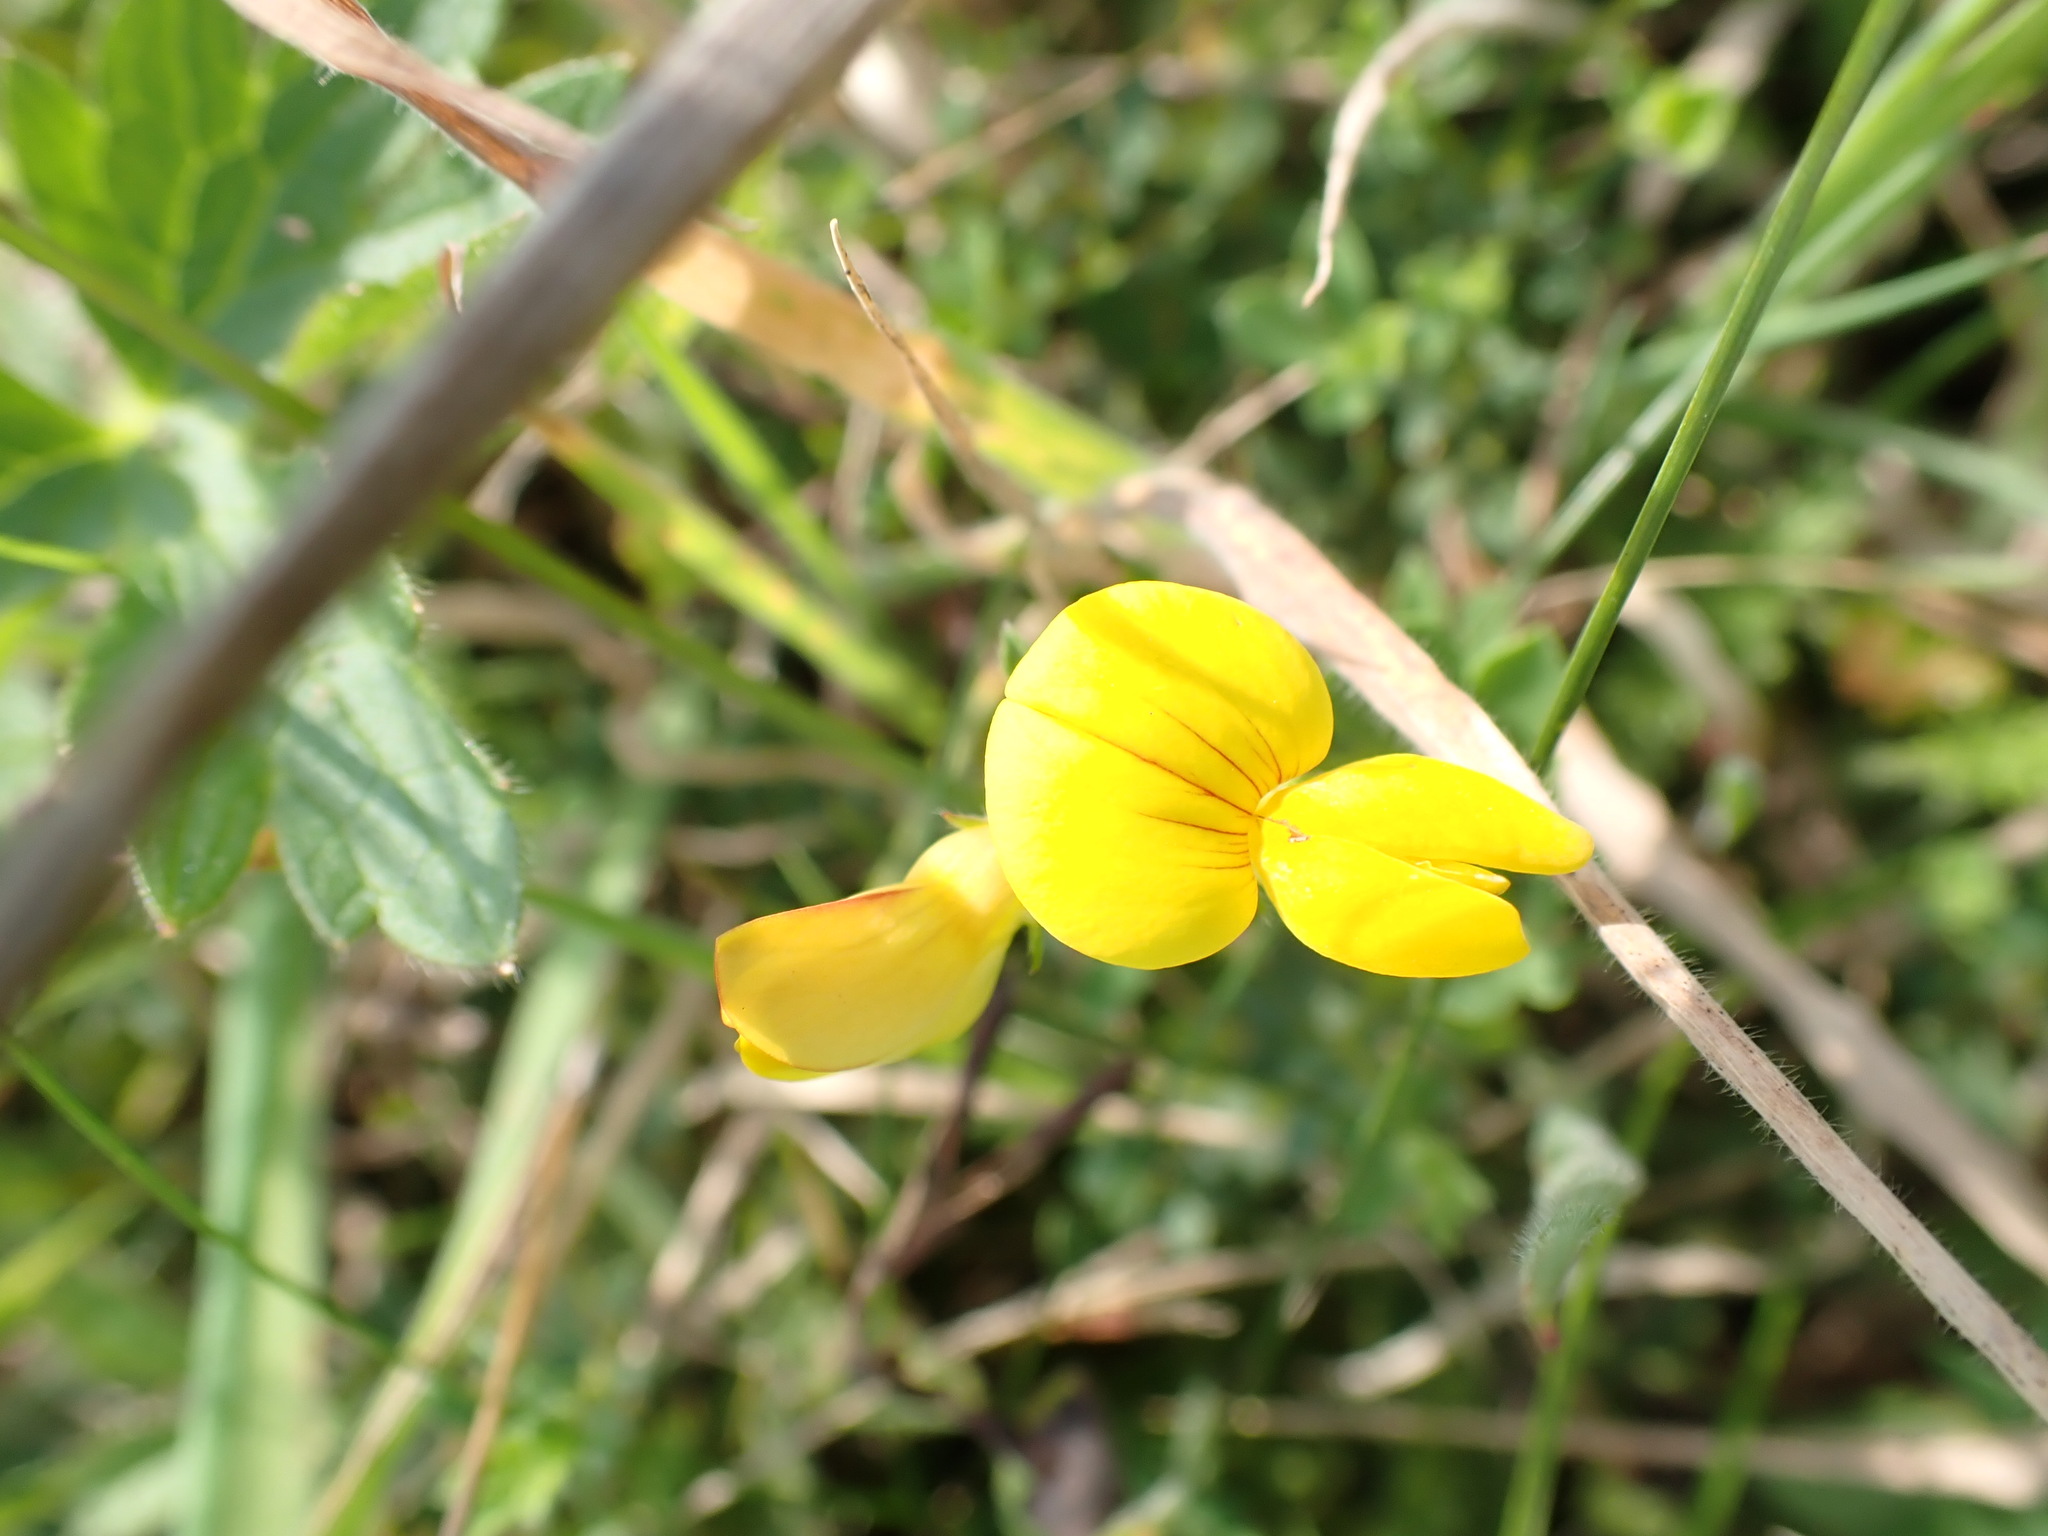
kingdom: Plantae
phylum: Tracheophyta
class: Magnoliopsida
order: Fabales
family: Fabaceae
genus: Lotus
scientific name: Lotus corniculatus
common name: Common bird's-foot-trefoil
